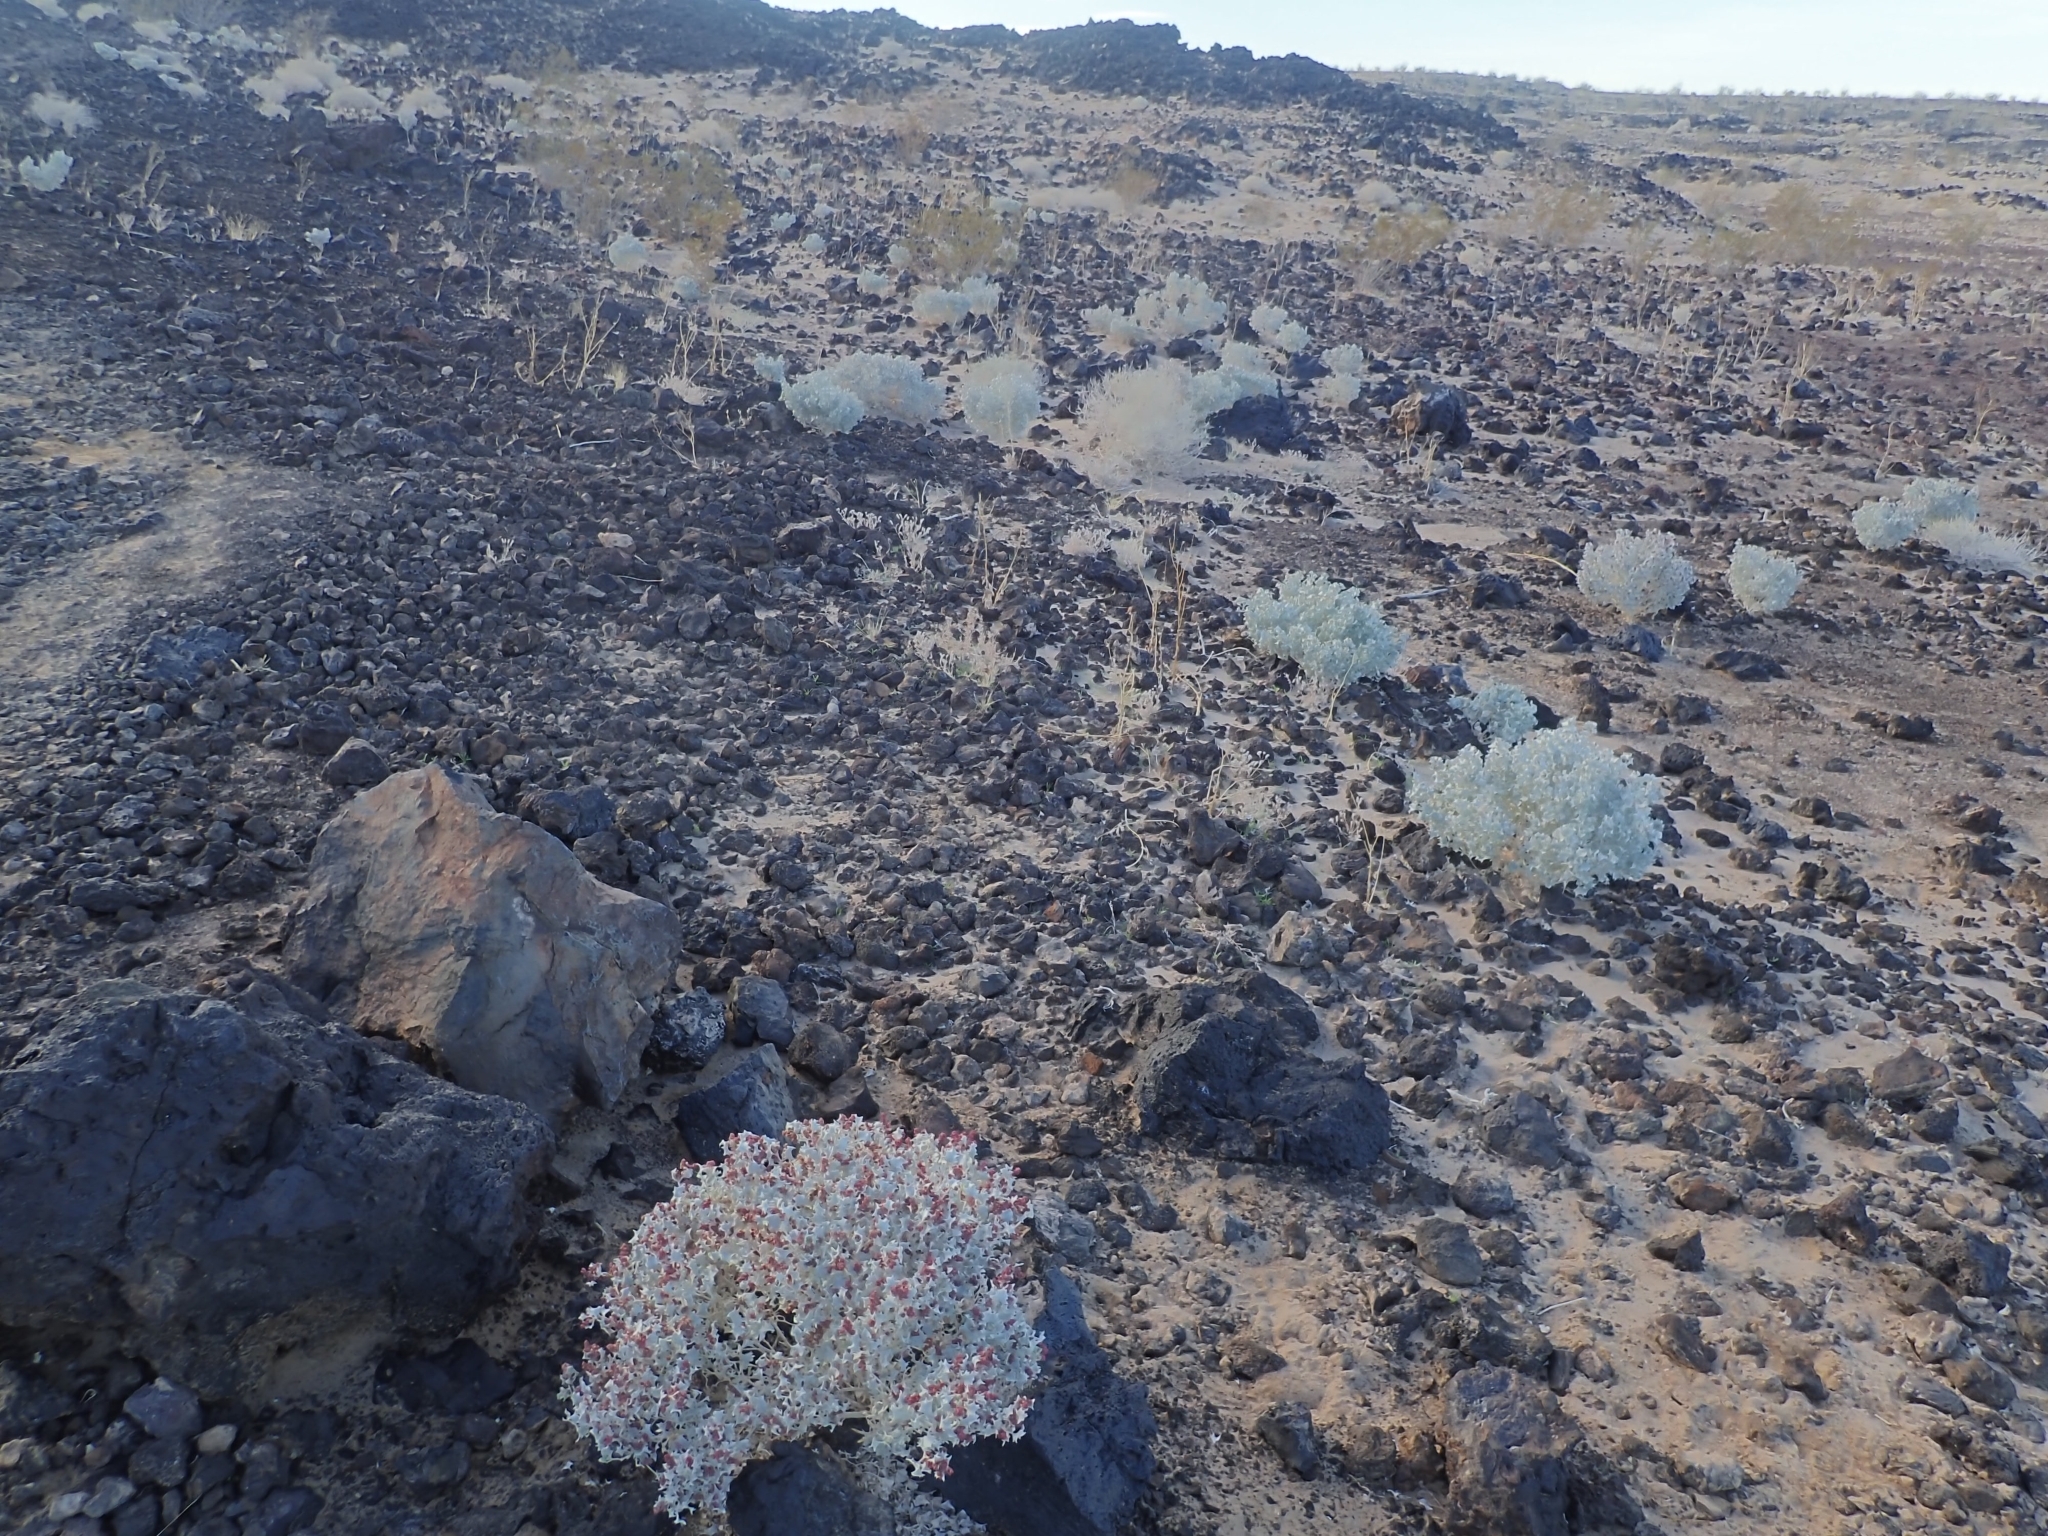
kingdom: Plantae
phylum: Tracheophyta
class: Magnoliopsida
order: Caryophyllales
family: Amaranthaceae
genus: Atriplex
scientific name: Atriplex hymenelytra
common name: Desert-holly
